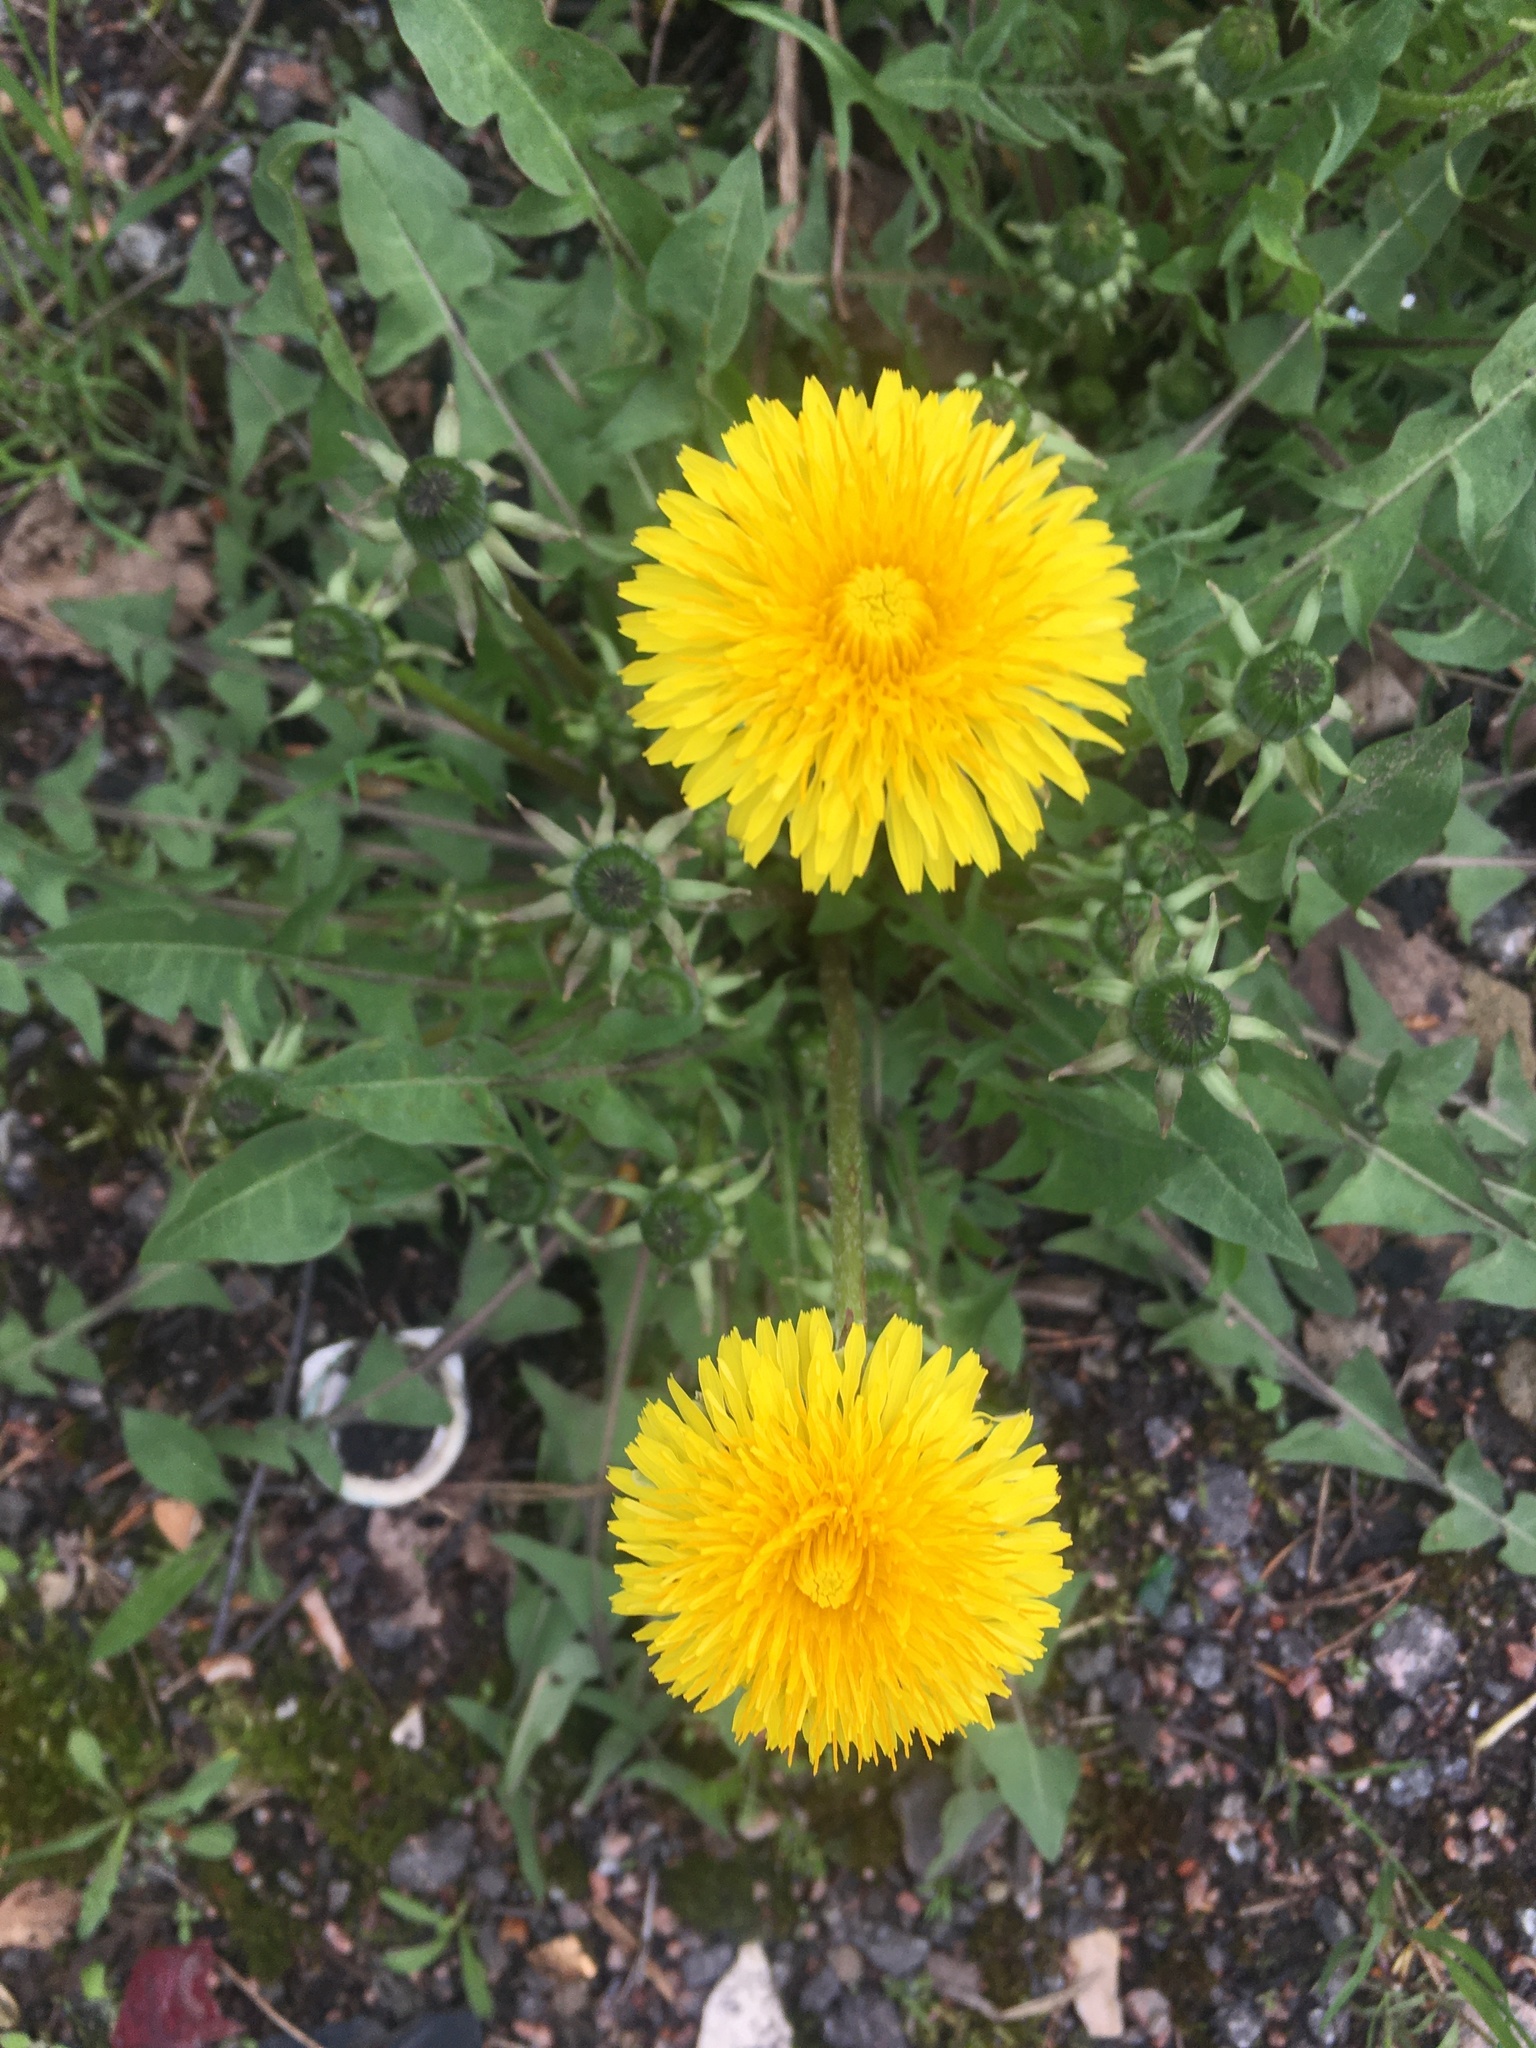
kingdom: Plantae
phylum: Tracheophyta
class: Magnoliopsida
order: Asterales
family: Asteraceae
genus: Taraxacum
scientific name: Taraxacum officinale
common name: Common dandelion
